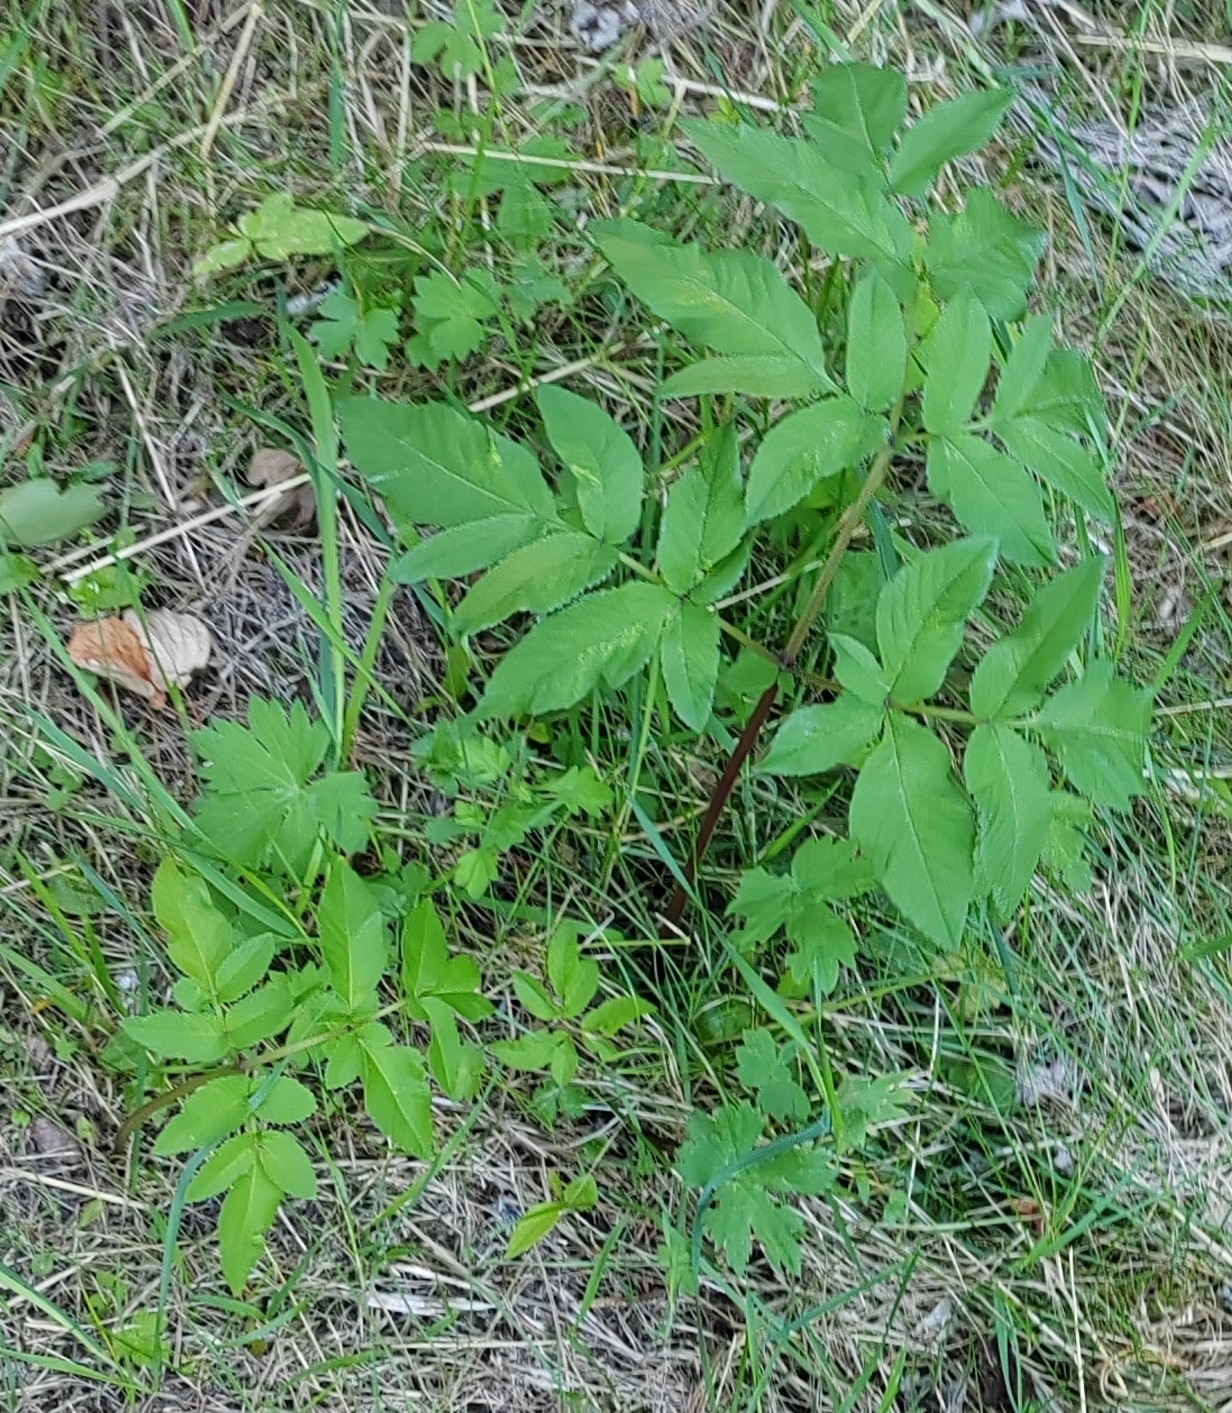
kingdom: Plantae
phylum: Tracheophyta
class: Magnoliopsida
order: Apiales
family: Apiaceae
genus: Angelica
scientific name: Angelica sylvestris
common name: Wild angelica
